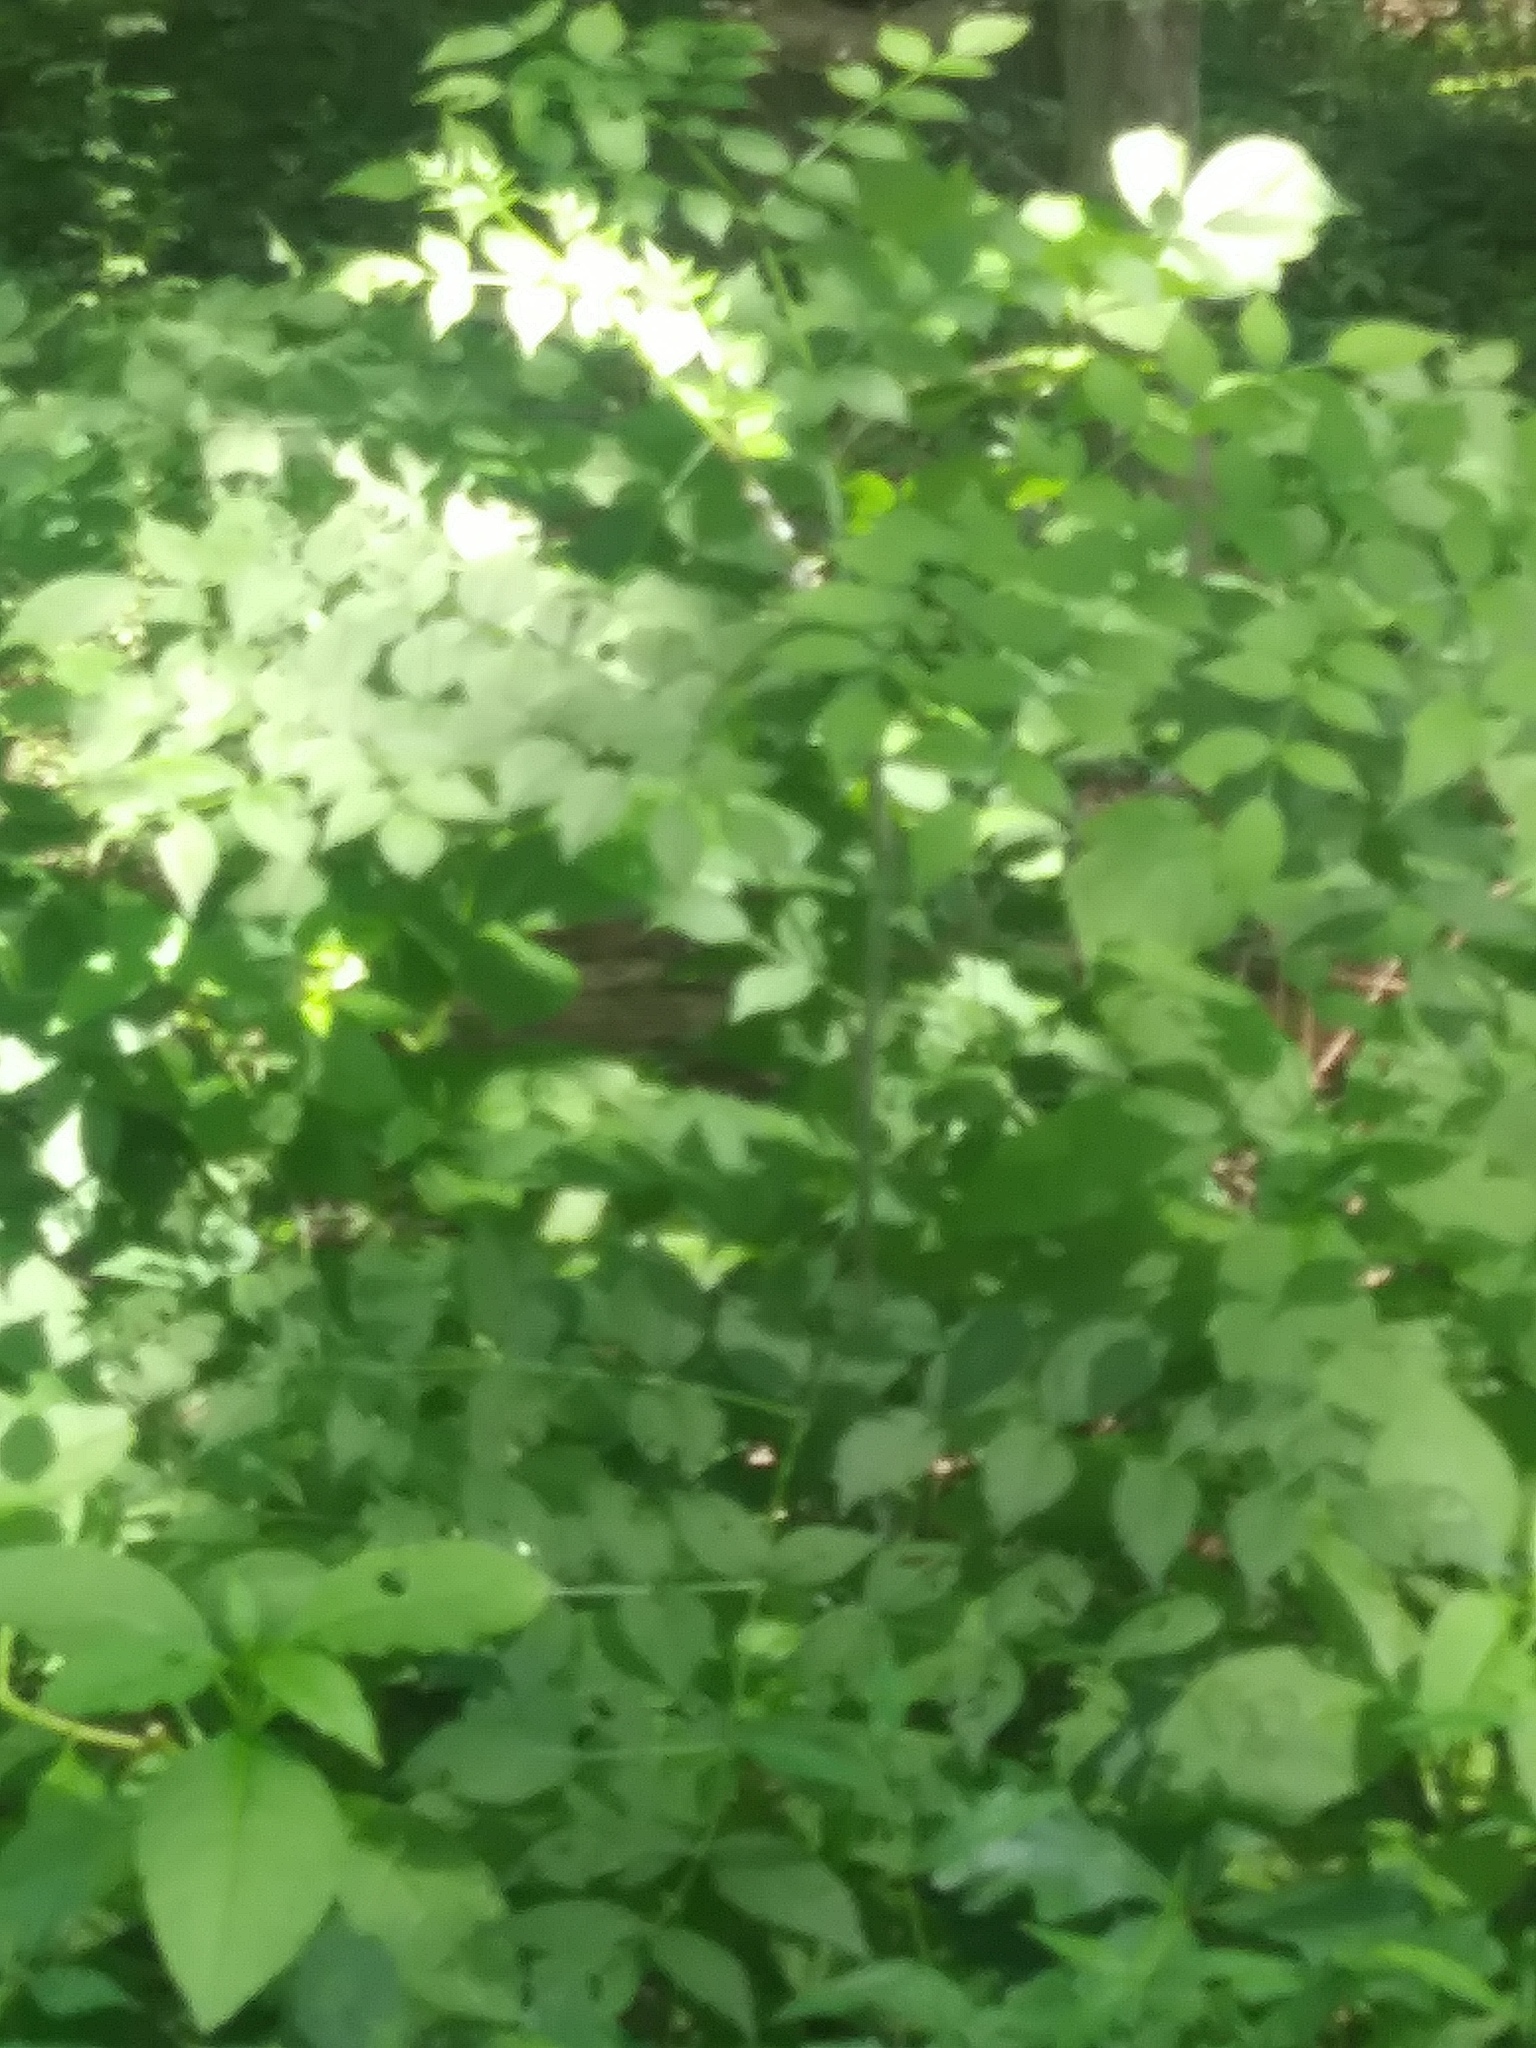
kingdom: Plantae
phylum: Tracheophyta
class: Magnoliopsida
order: Apiales
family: Araliaceae
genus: Aralia
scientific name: Aralia elata
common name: Japanese angelica-tree
